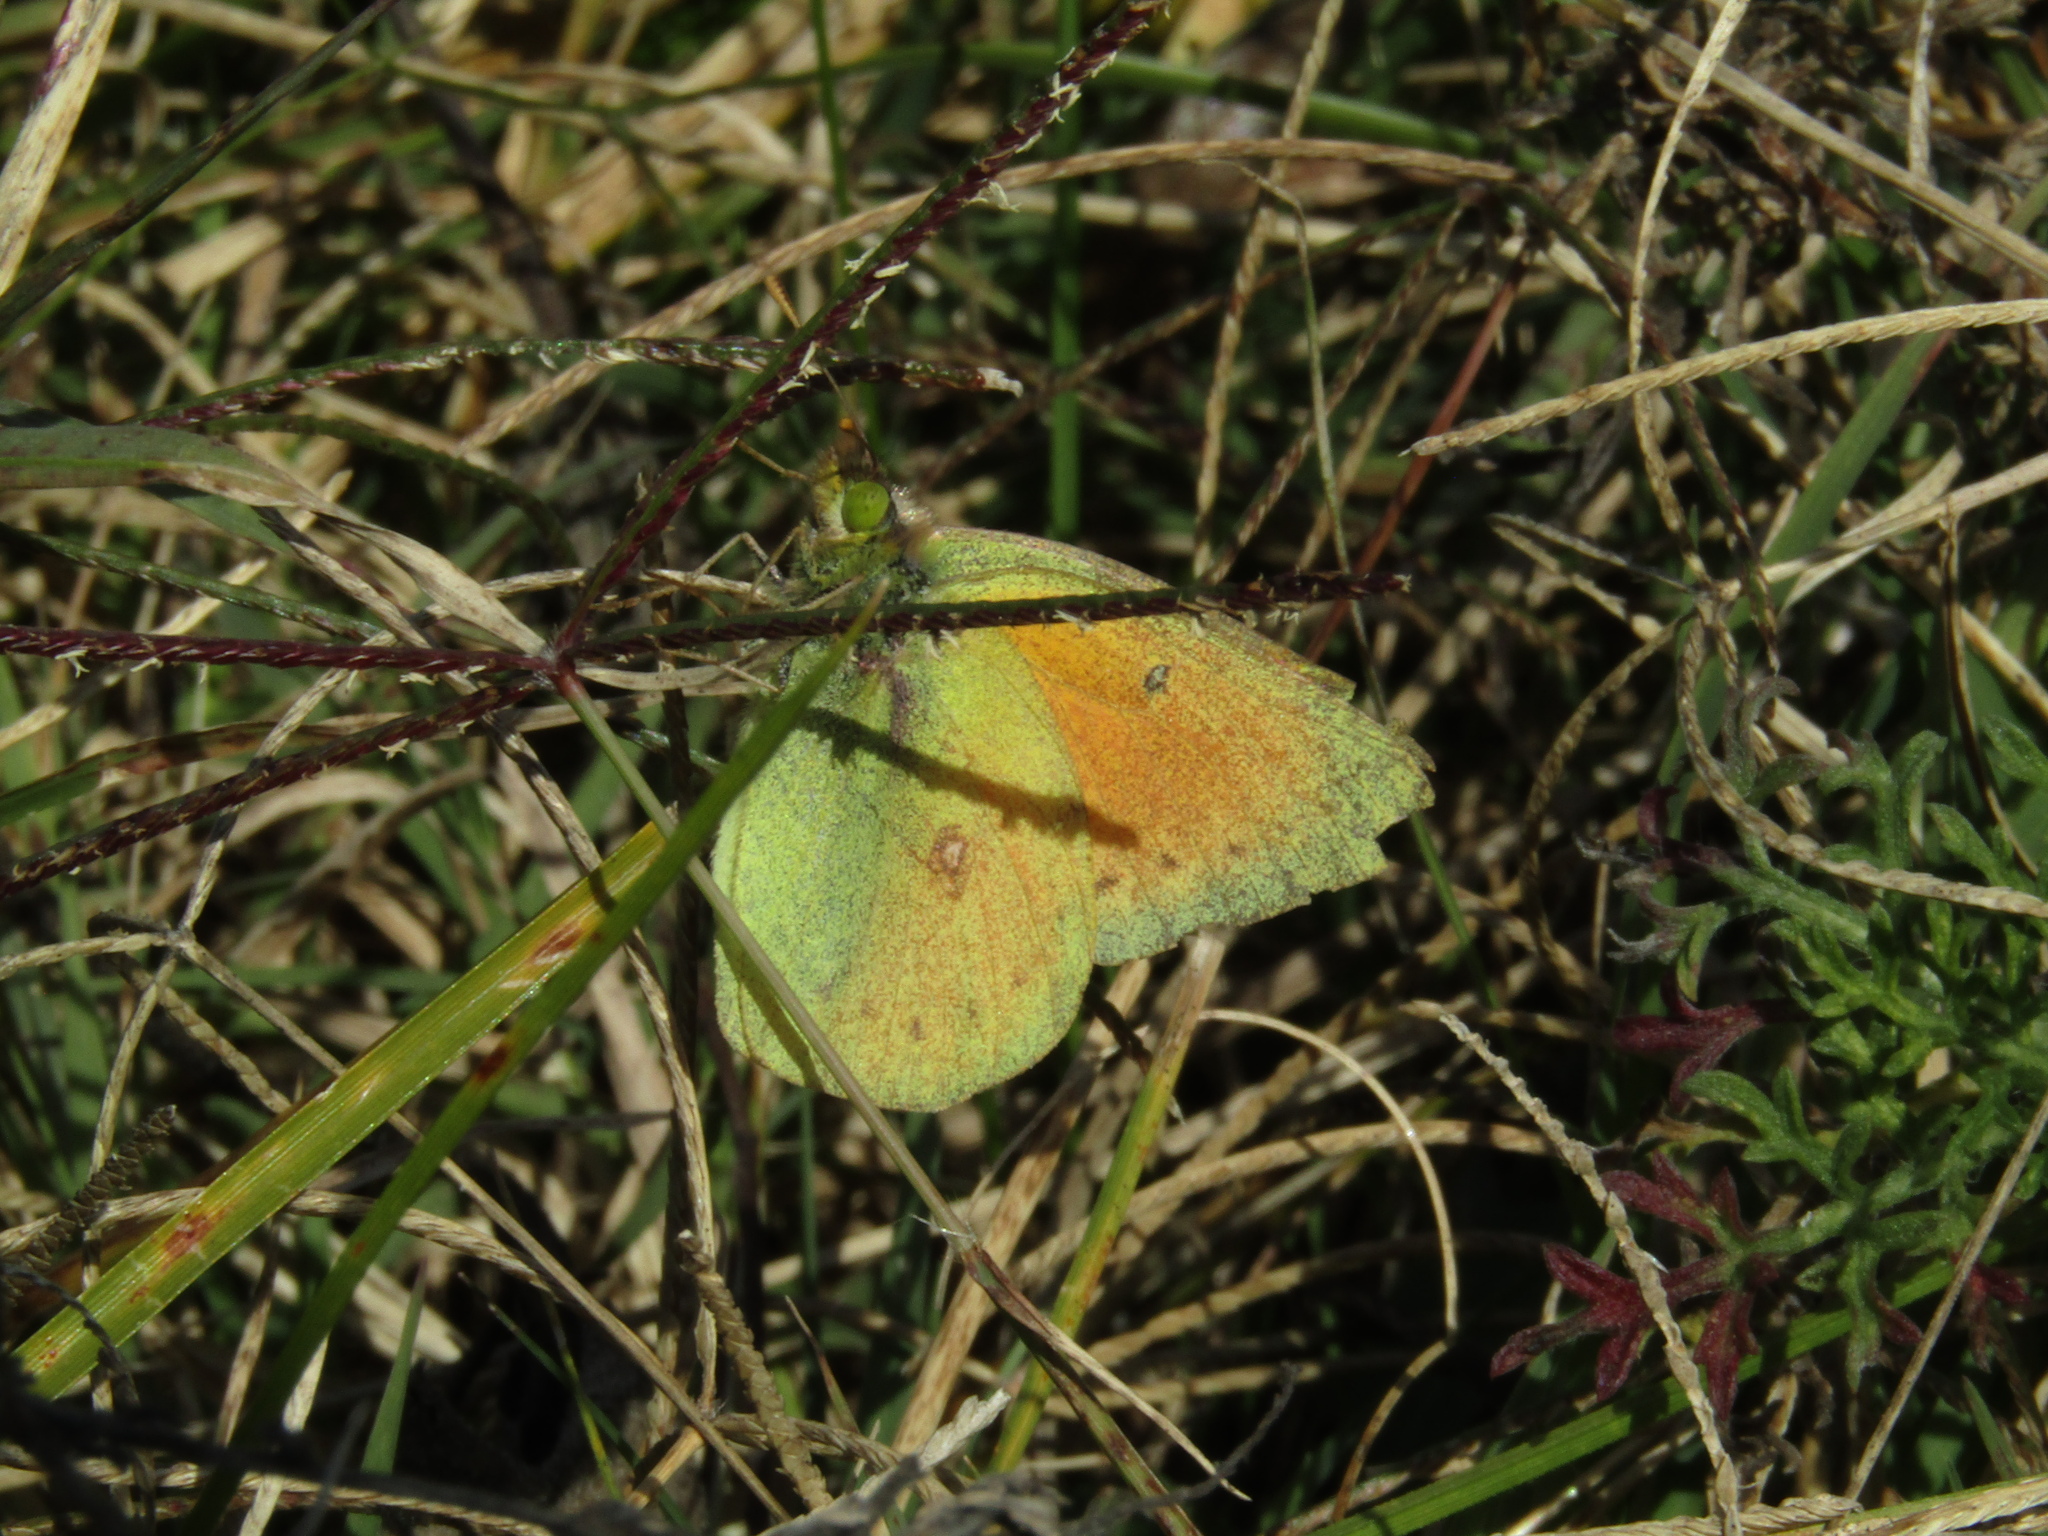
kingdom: Animalia
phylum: Arthropoda
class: Insecta
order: Lepidoptera
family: Pieridae
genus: Colias
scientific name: Colias lesbia
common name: Lesbia clouded yellow
